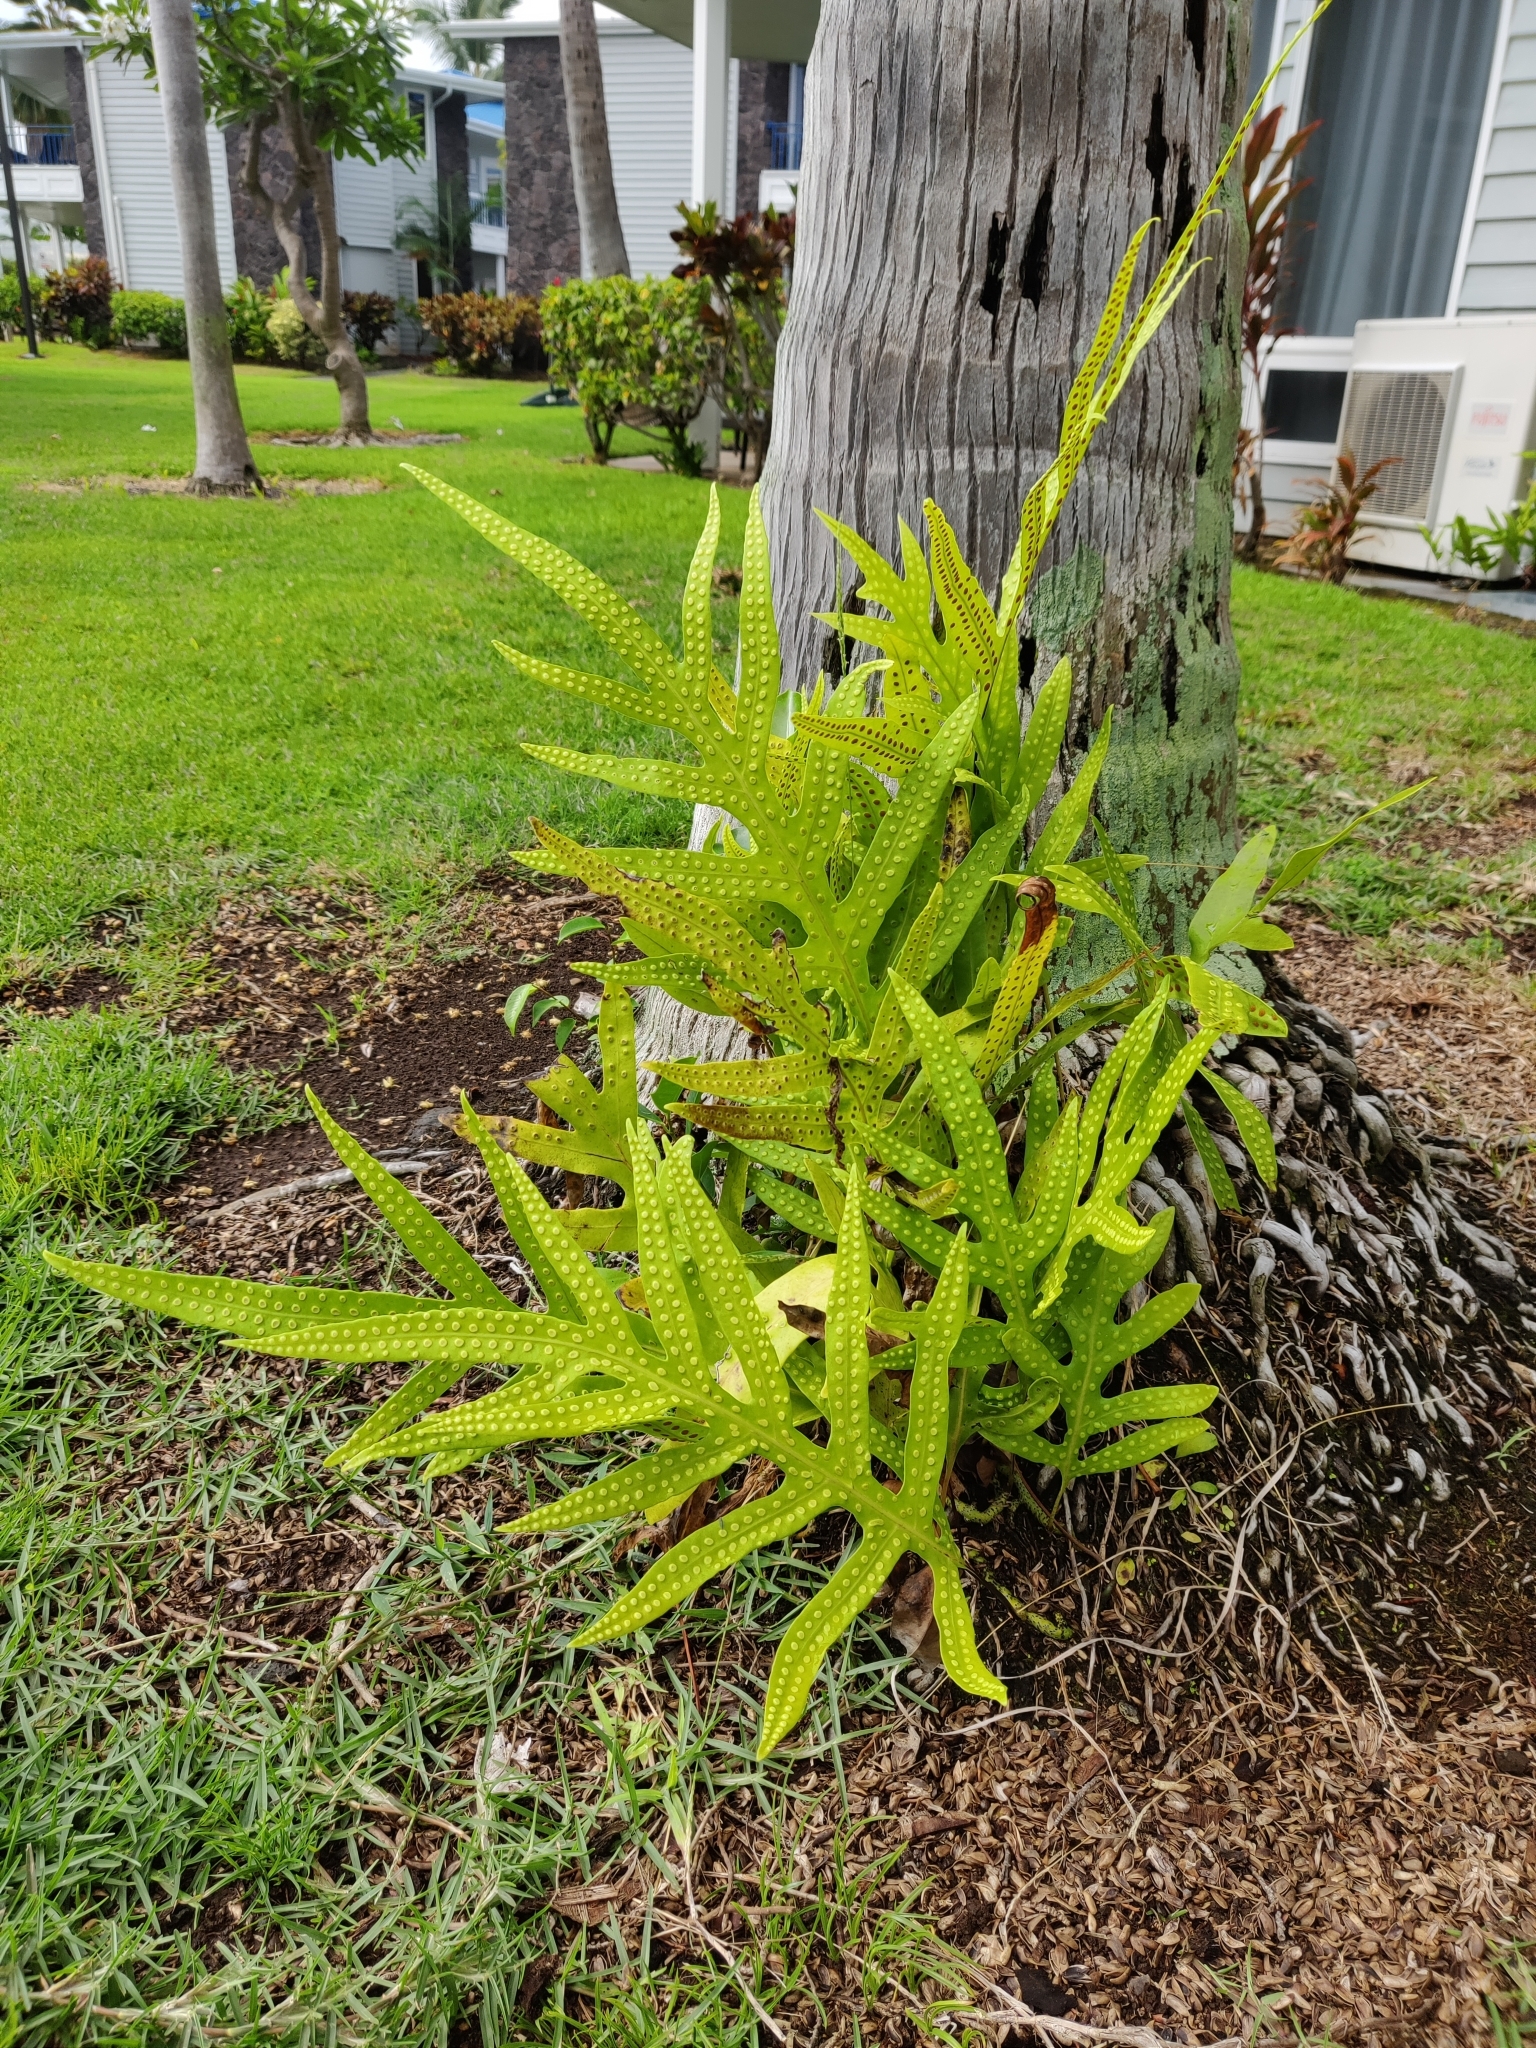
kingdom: Plantae
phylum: Tracheophyta
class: Polypodiopsida
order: Polypodiales
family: Polypodiaceae
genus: Microsorum
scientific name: Microsorum grossum
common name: Musk fern
